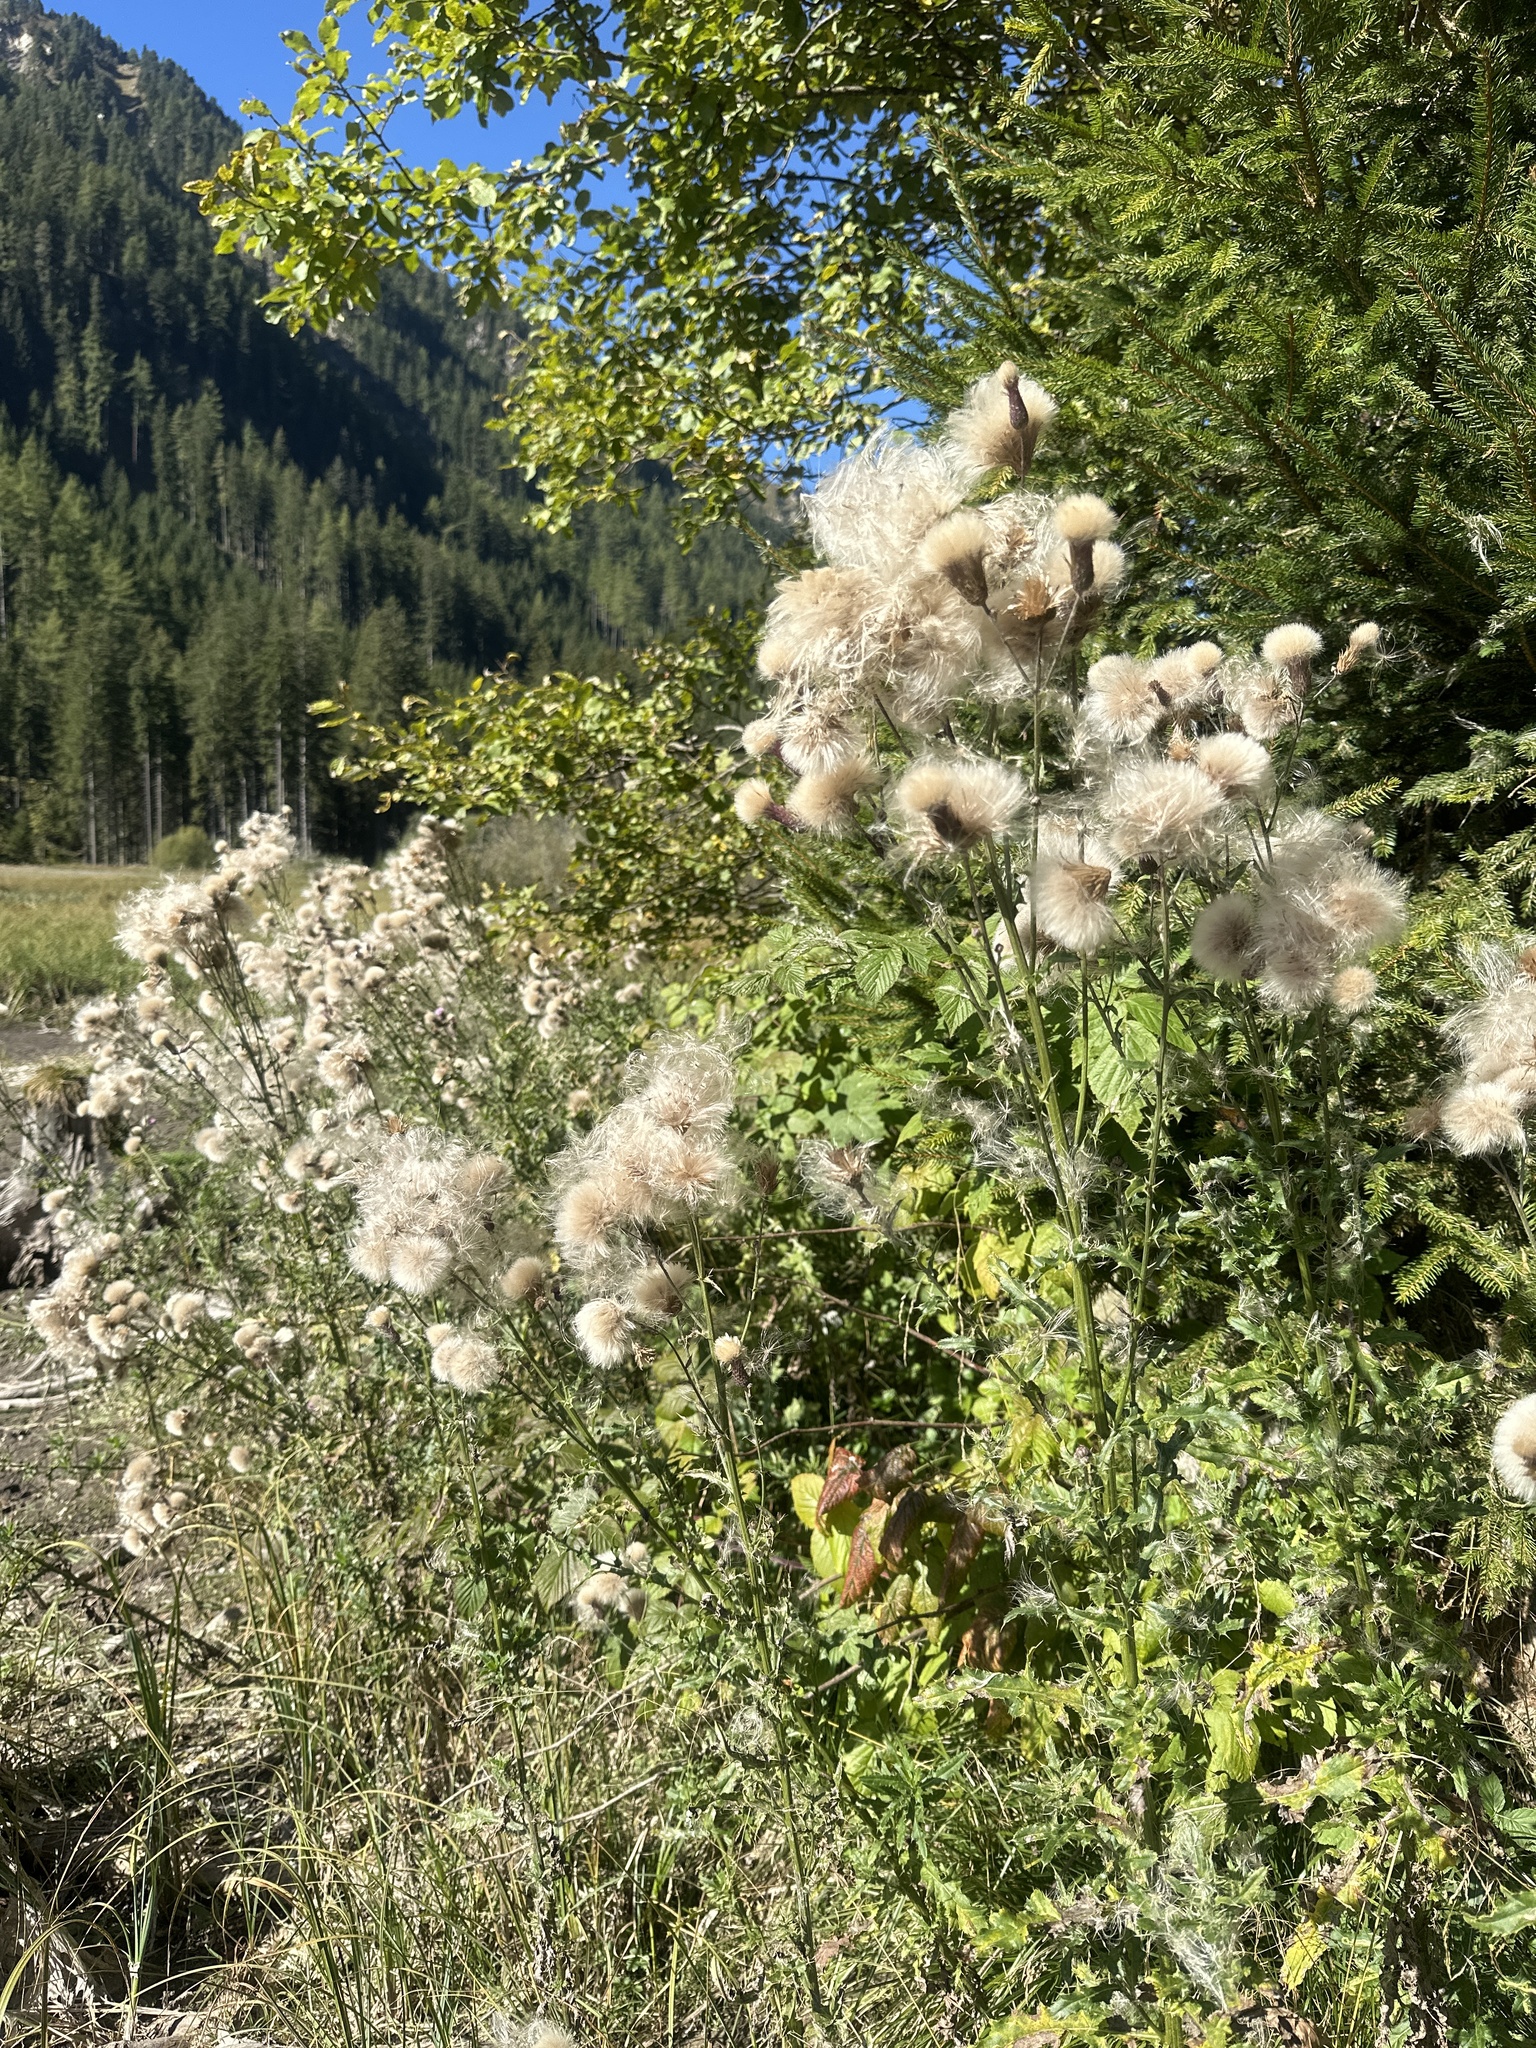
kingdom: Plantae
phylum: Tracheophyta
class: Magnoliopsida
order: Asterales
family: Asteraceae
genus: Cirsium
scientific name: Cirsium arvense
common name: Creeping thistle
